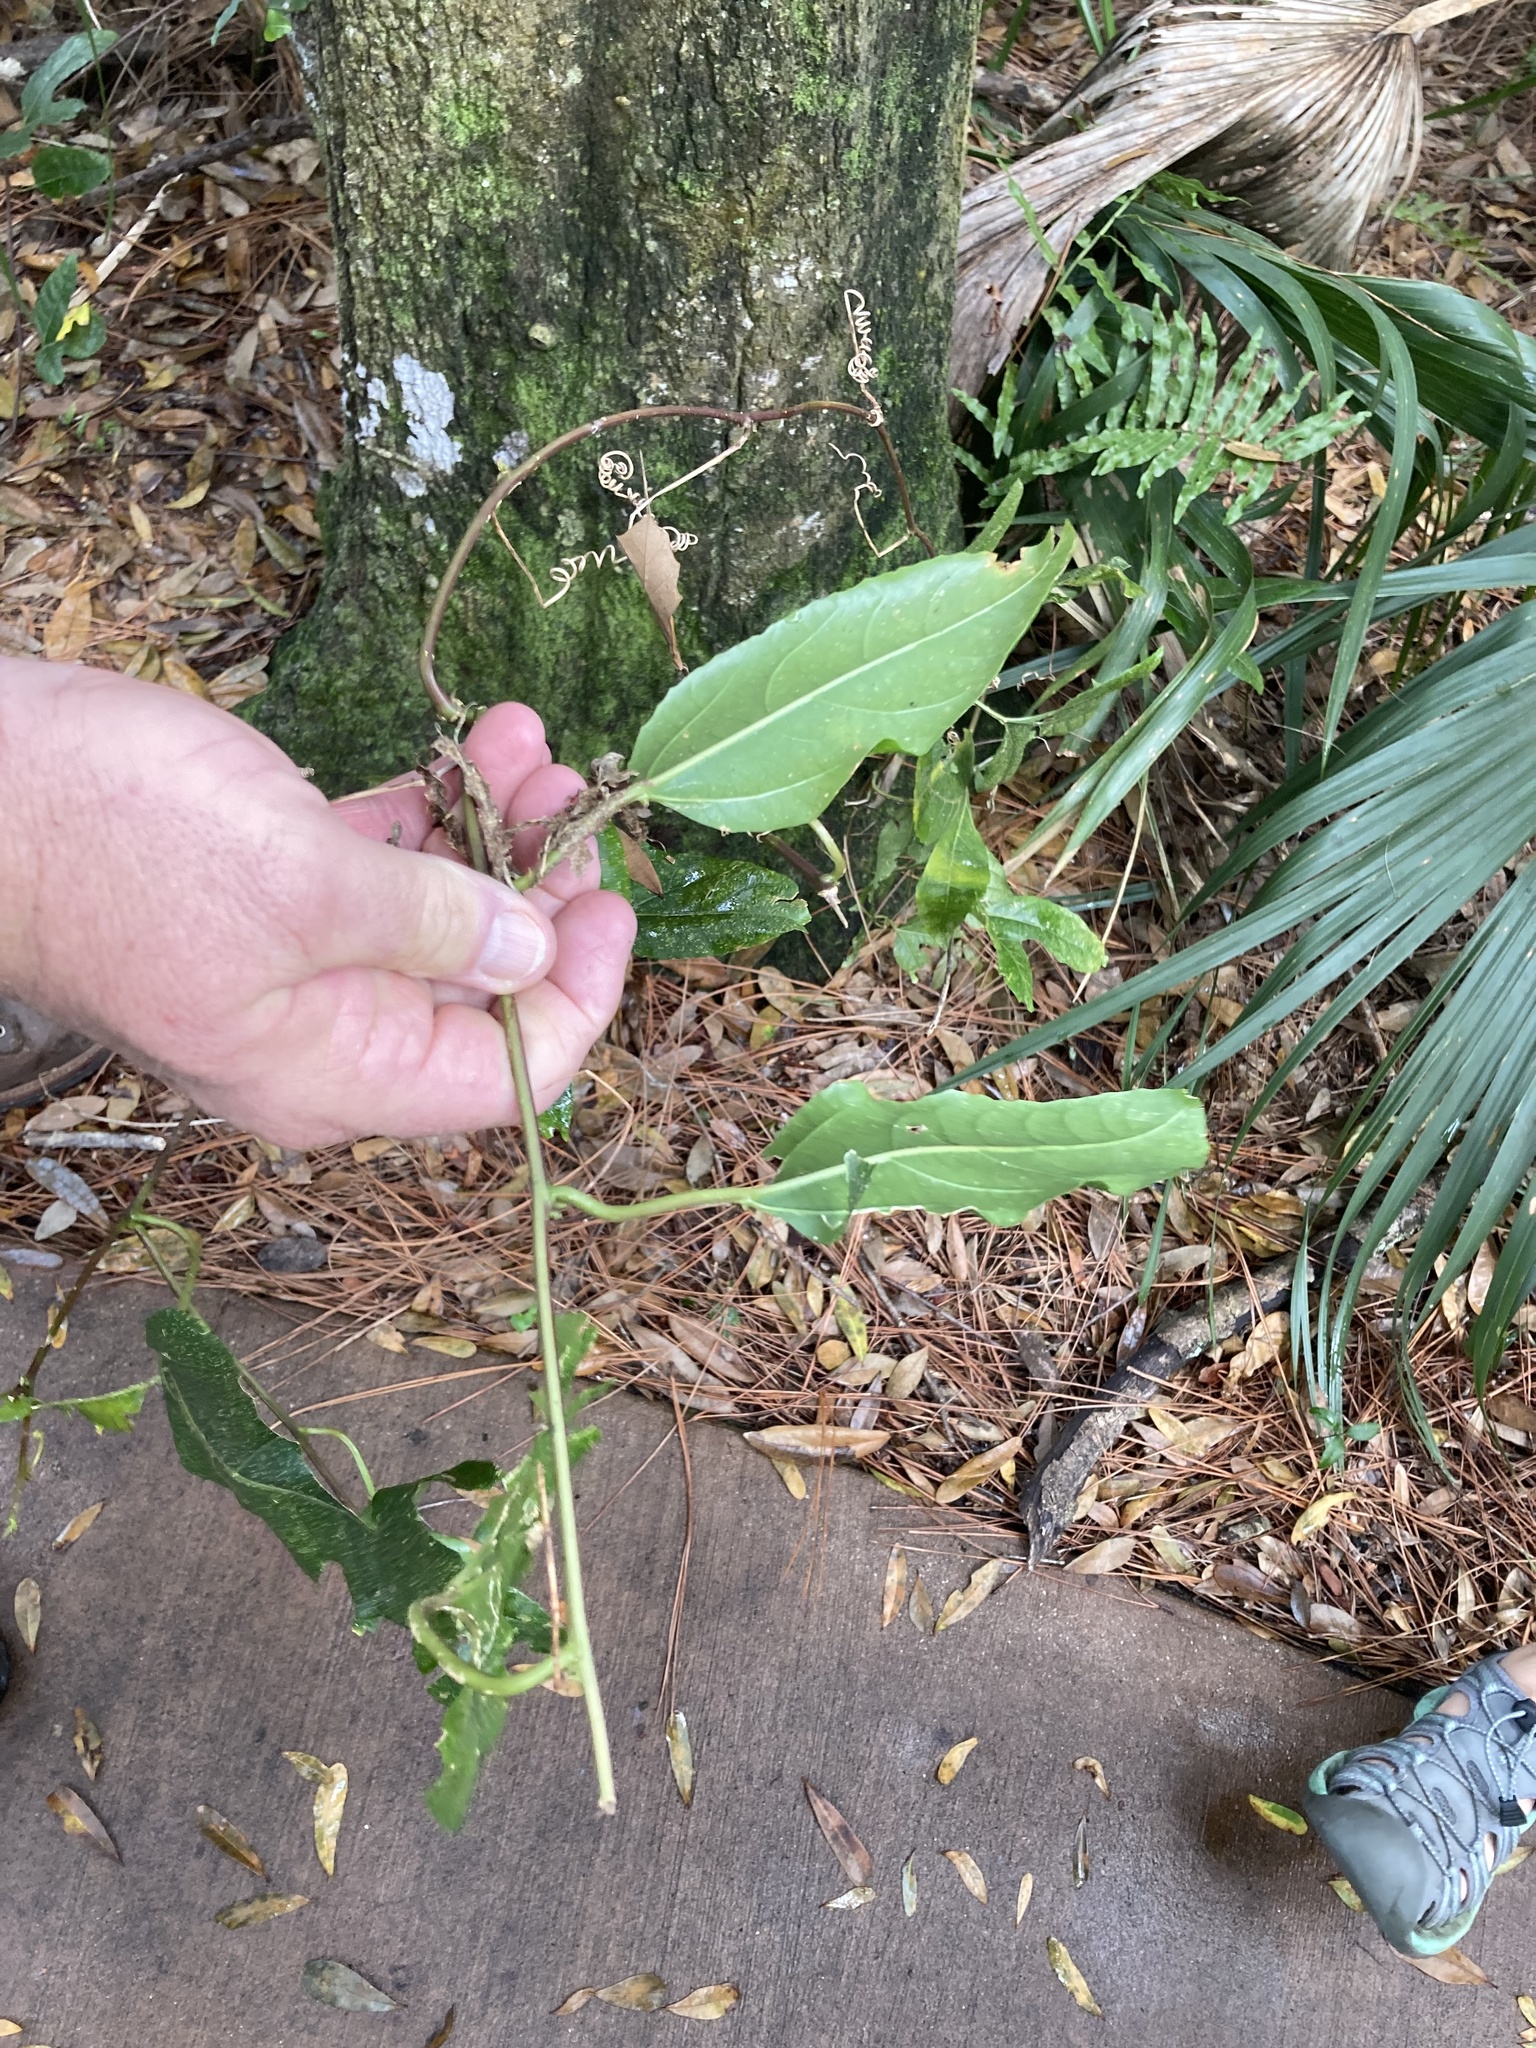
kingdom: Plantae
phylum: Tracheophyta
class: Magnoliopsida
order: Malpighiales
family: Passifloraceae
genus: Passiflora
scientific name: Passiflora edulis
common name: Purple granadilla
